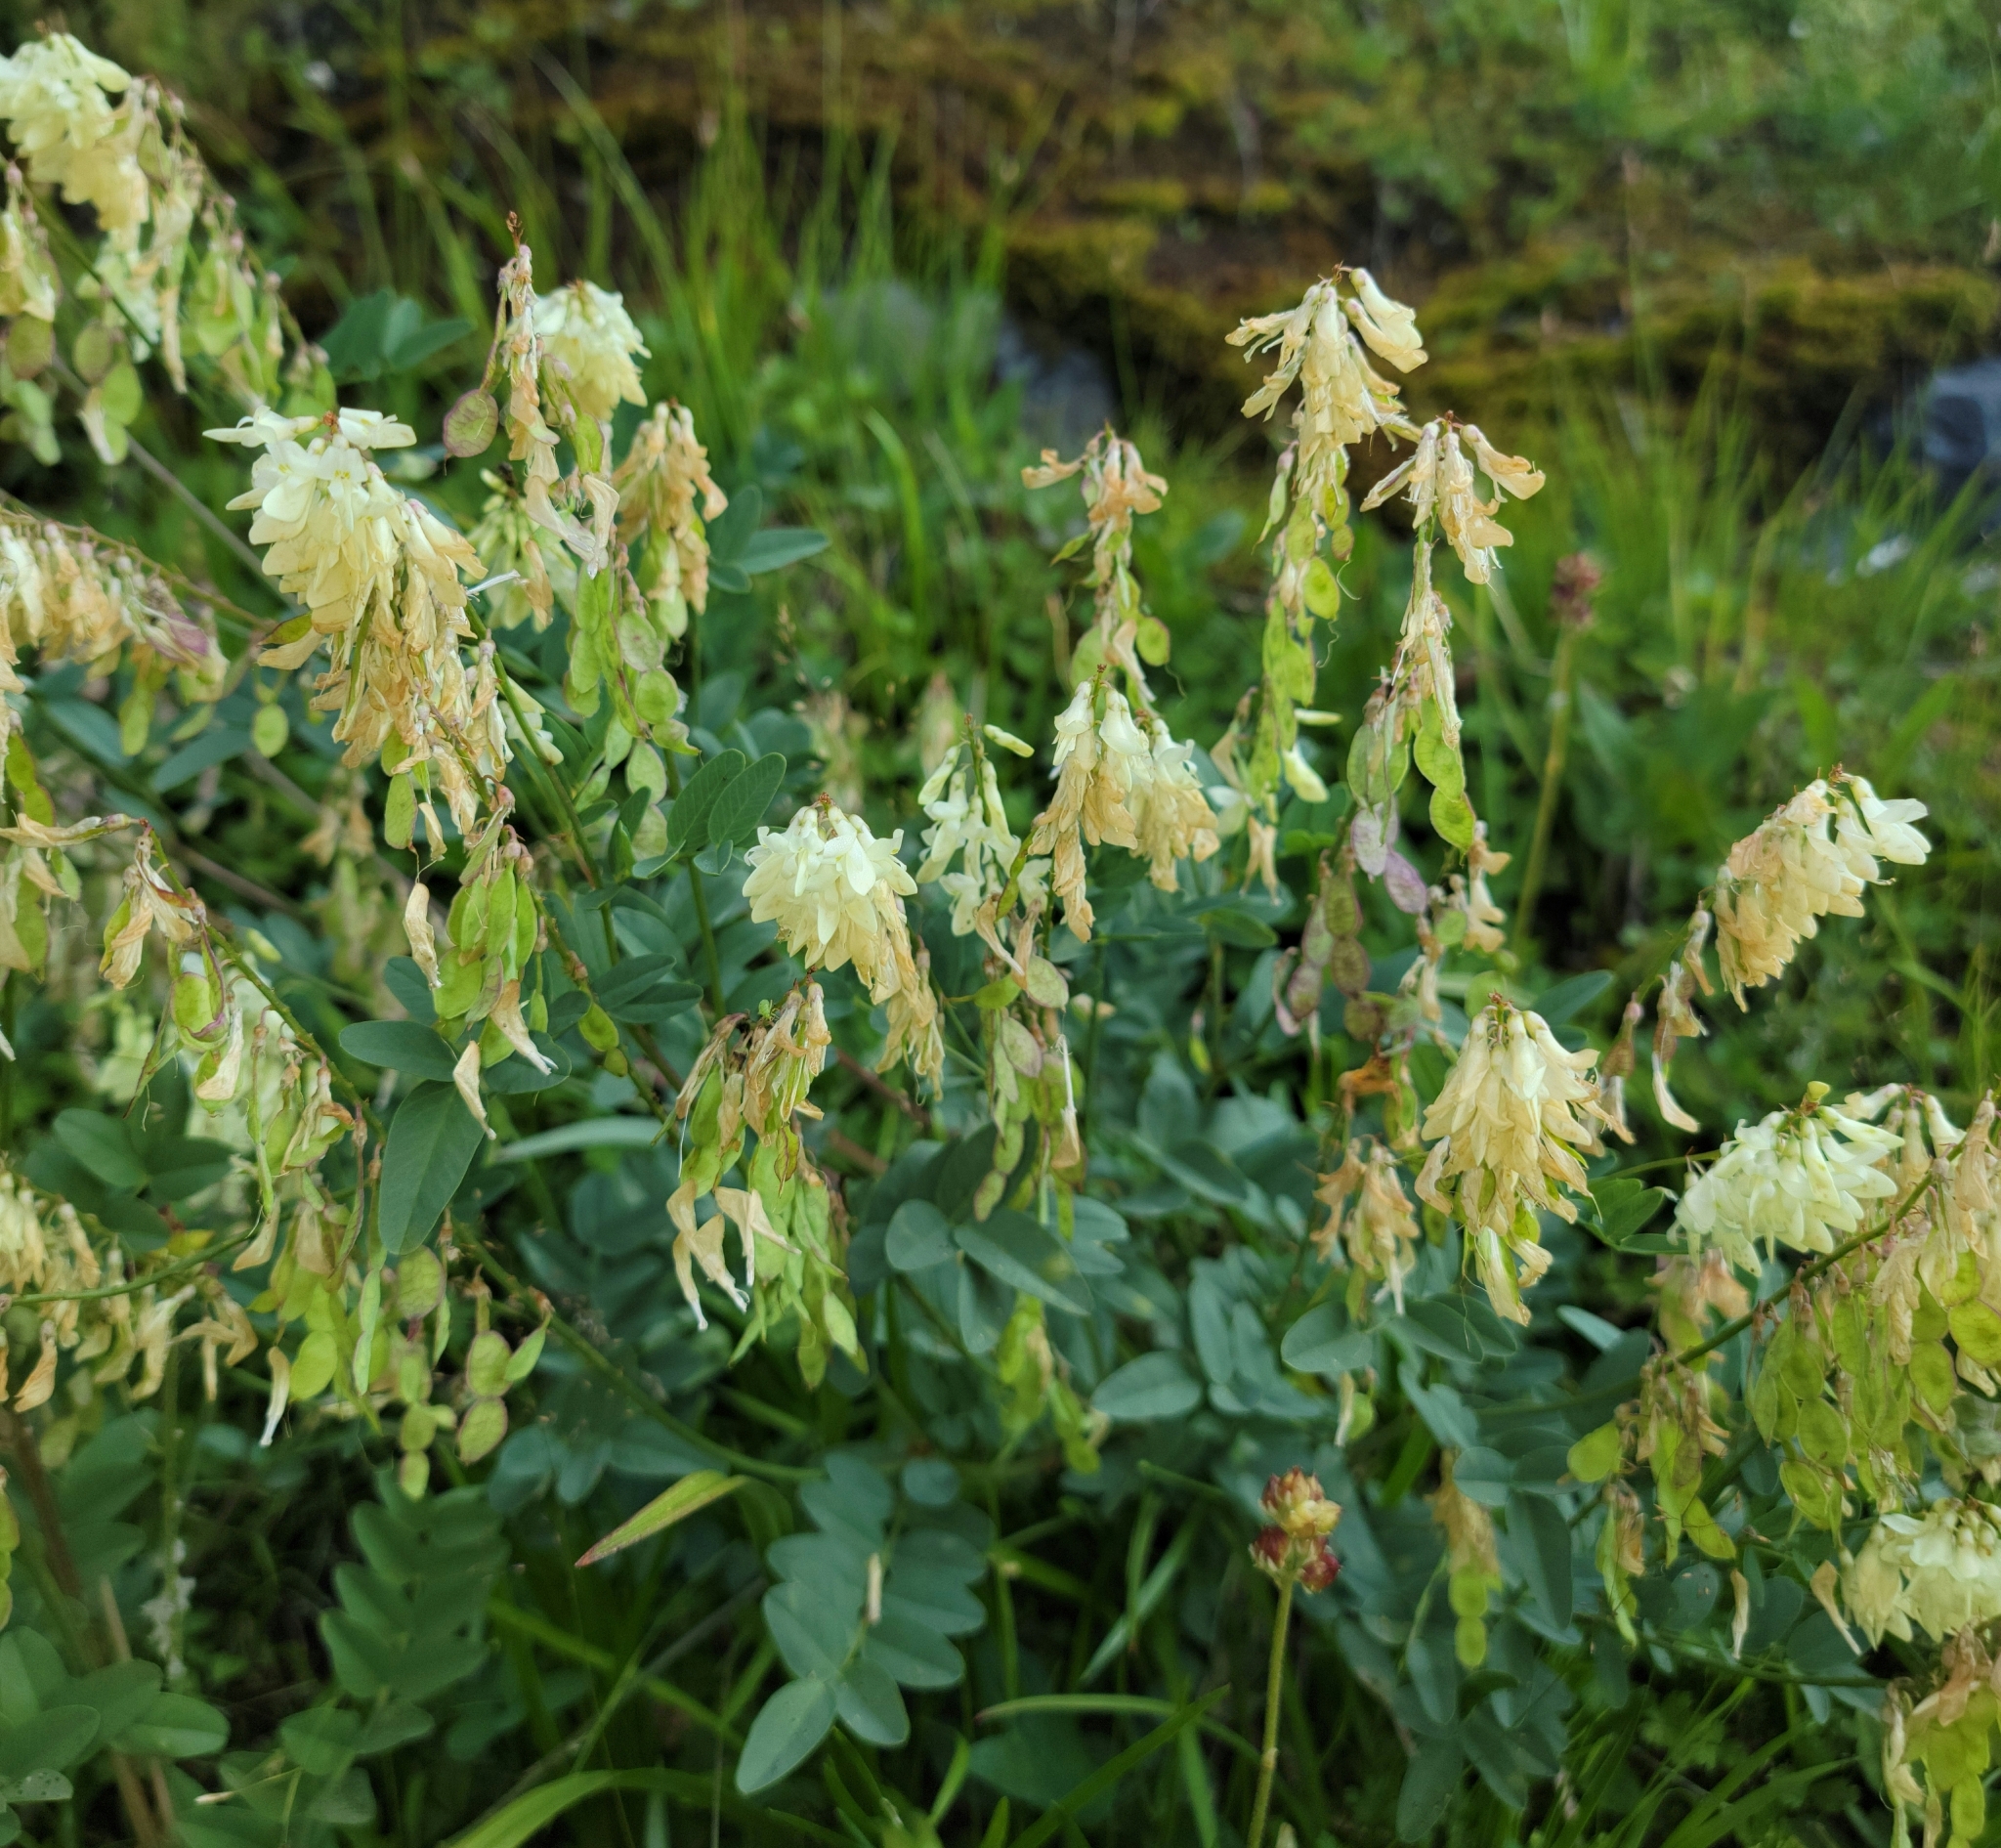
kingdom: Plantae
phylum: Tracheophyta
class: Magnoliopsida
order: Fabales
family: Fabaceae
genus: Hedysarum
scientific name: Hedysarum sulphurescens
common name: Sulphur hedysarum
